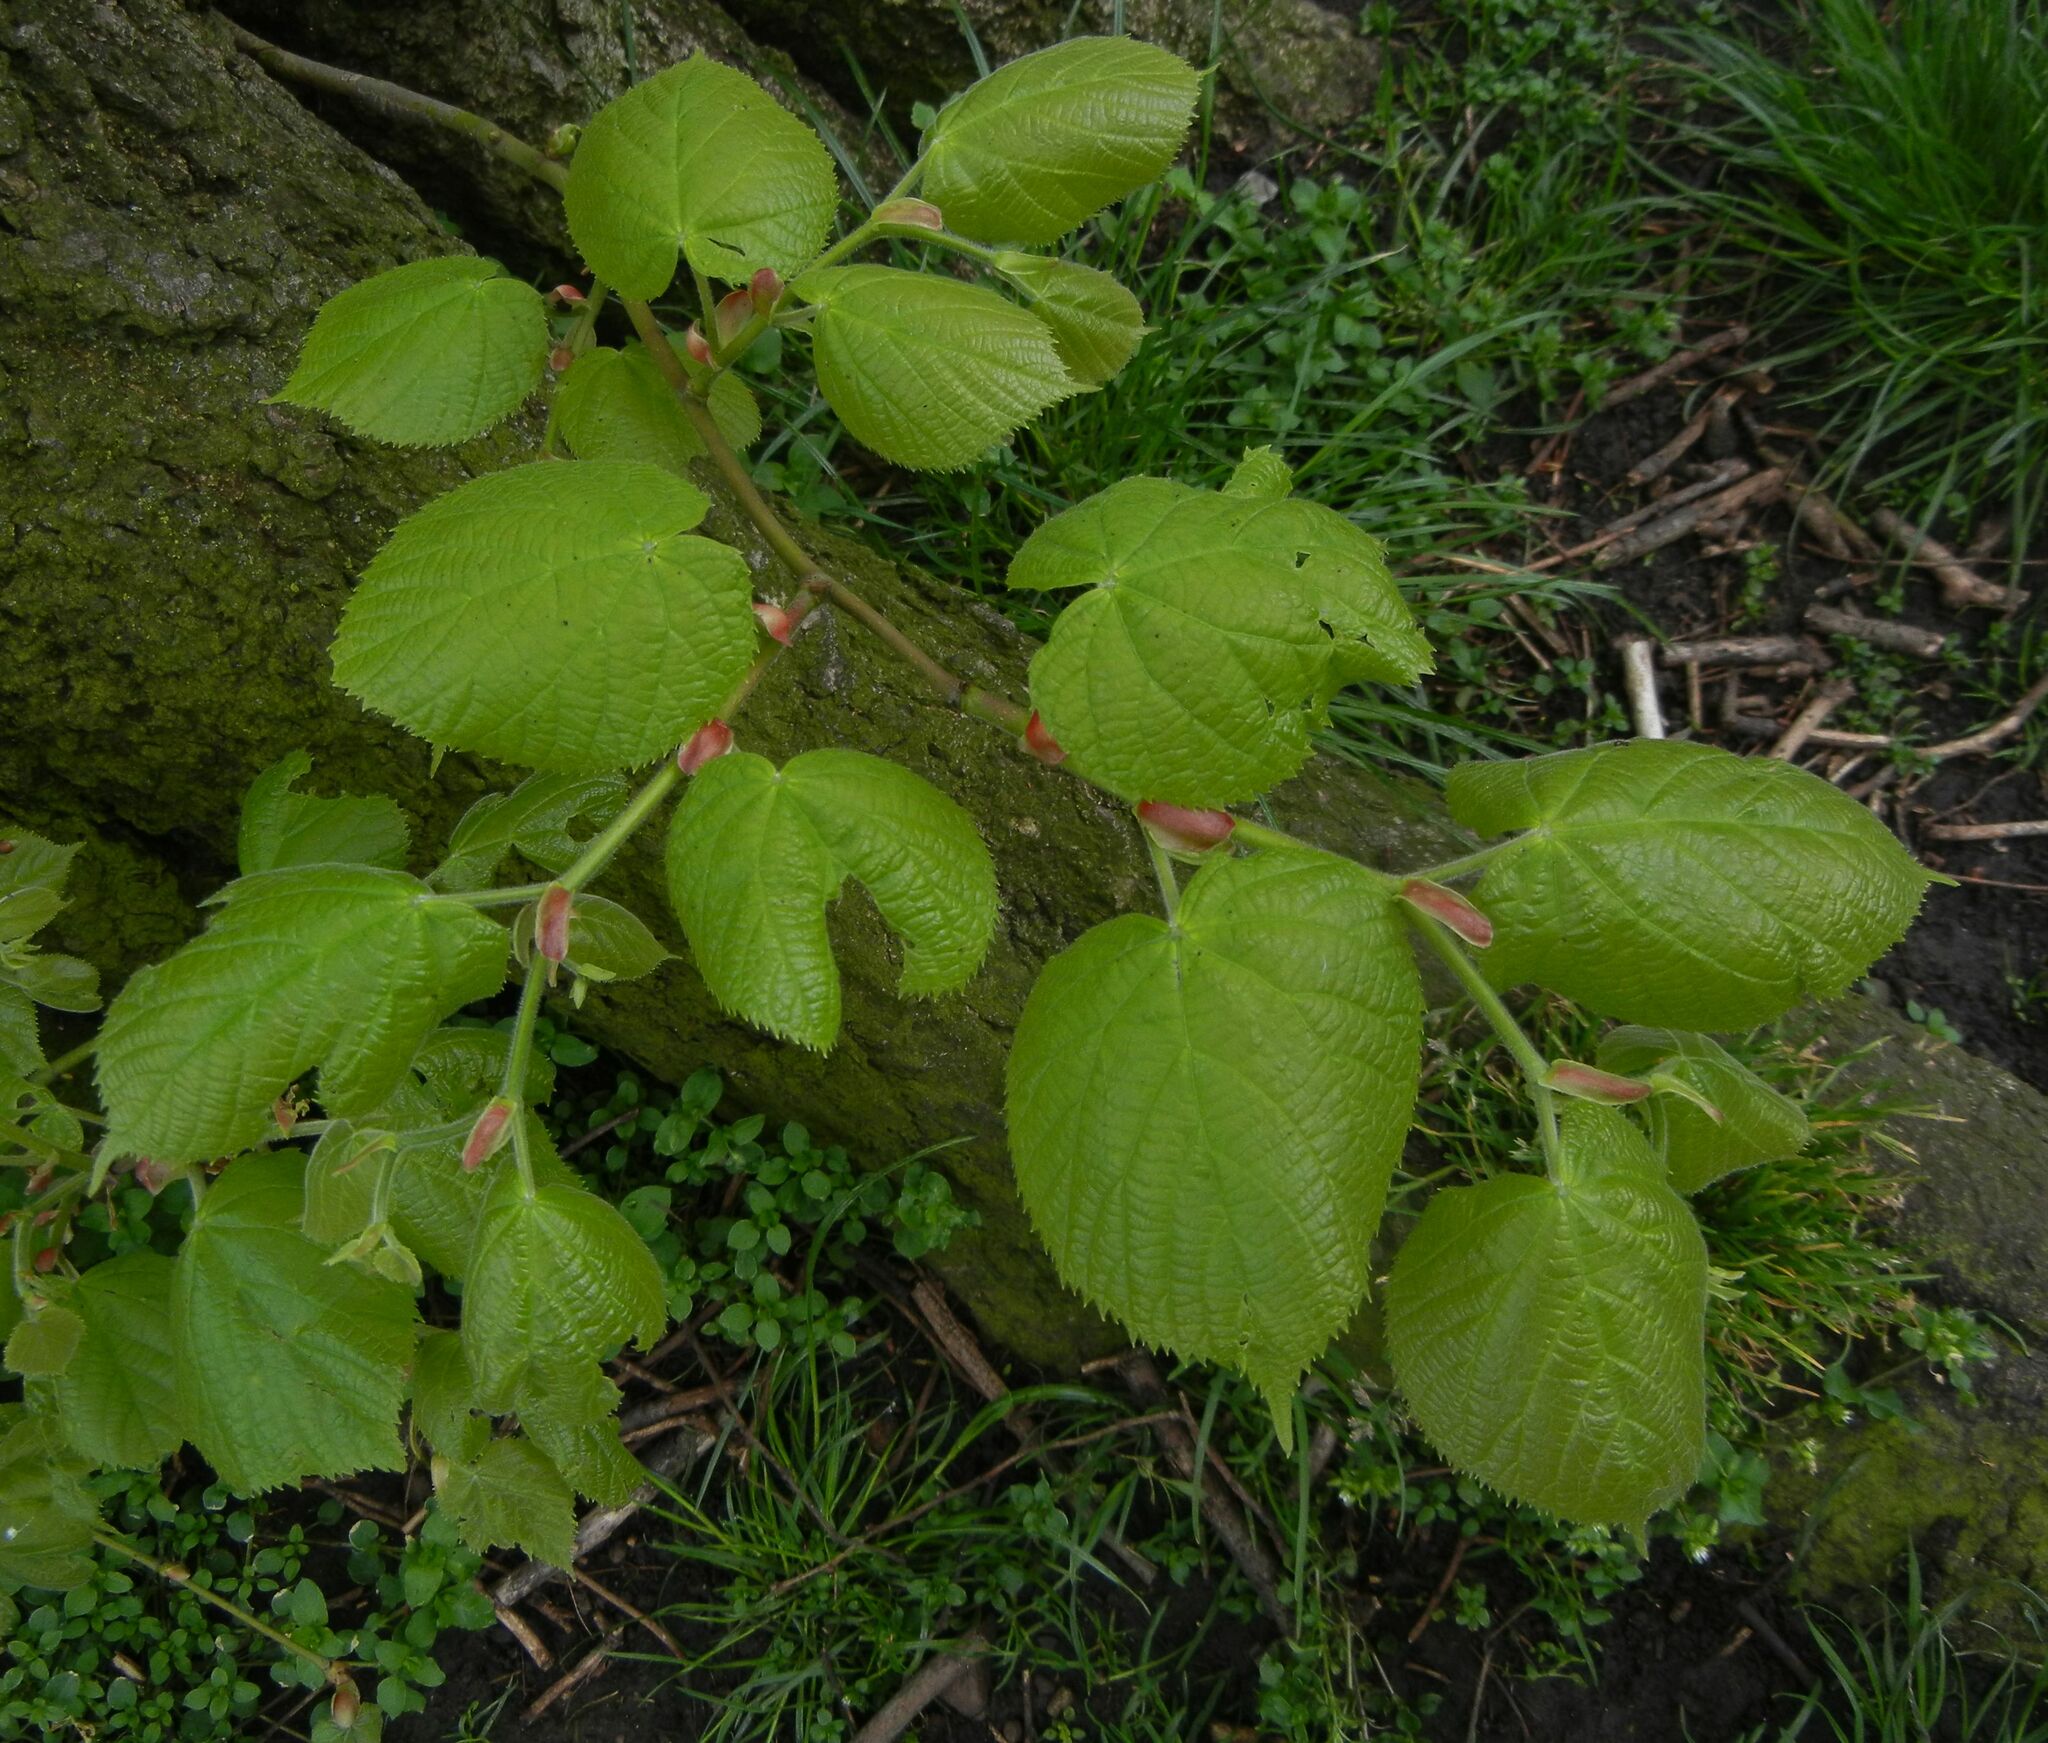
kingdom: Plantae
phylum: Tracheophyta
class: Magnoliopsida
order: Malvales
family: Malvaceae
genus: Tilia
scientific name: Tilia europaea
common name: European linden
